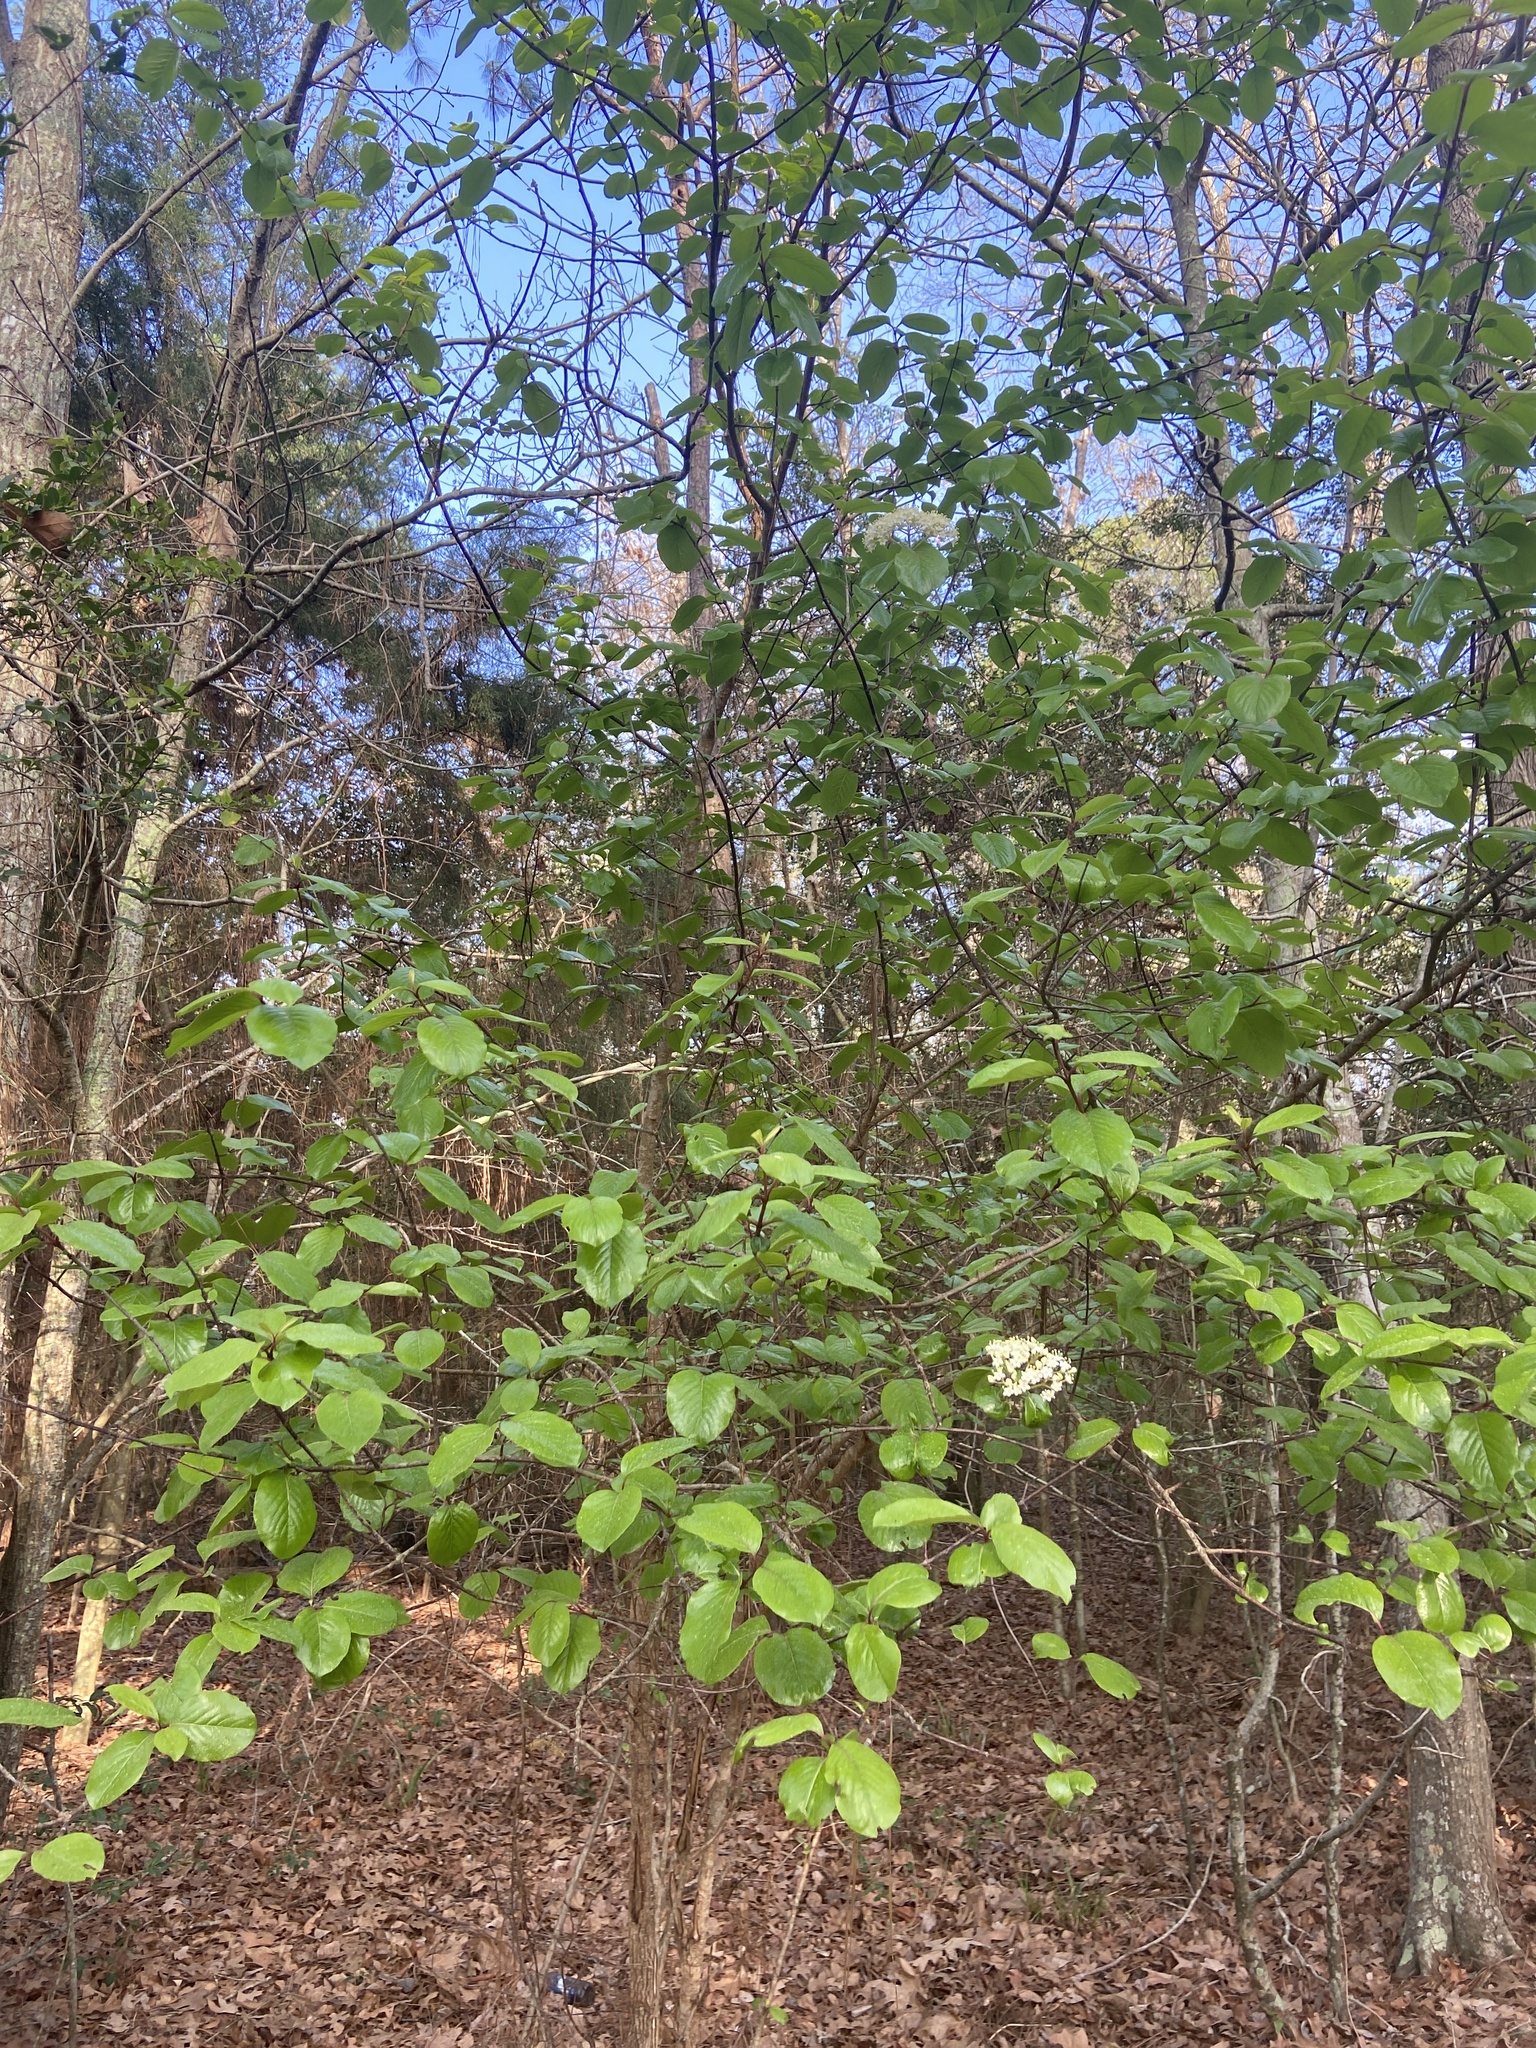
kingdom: Plantae
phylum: Tracheophyta
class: Magnoliopsida
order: Dipsacales
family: Viburnaceae
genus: Viburnum
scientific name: Viburnum rufidulum
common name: Blue haw
